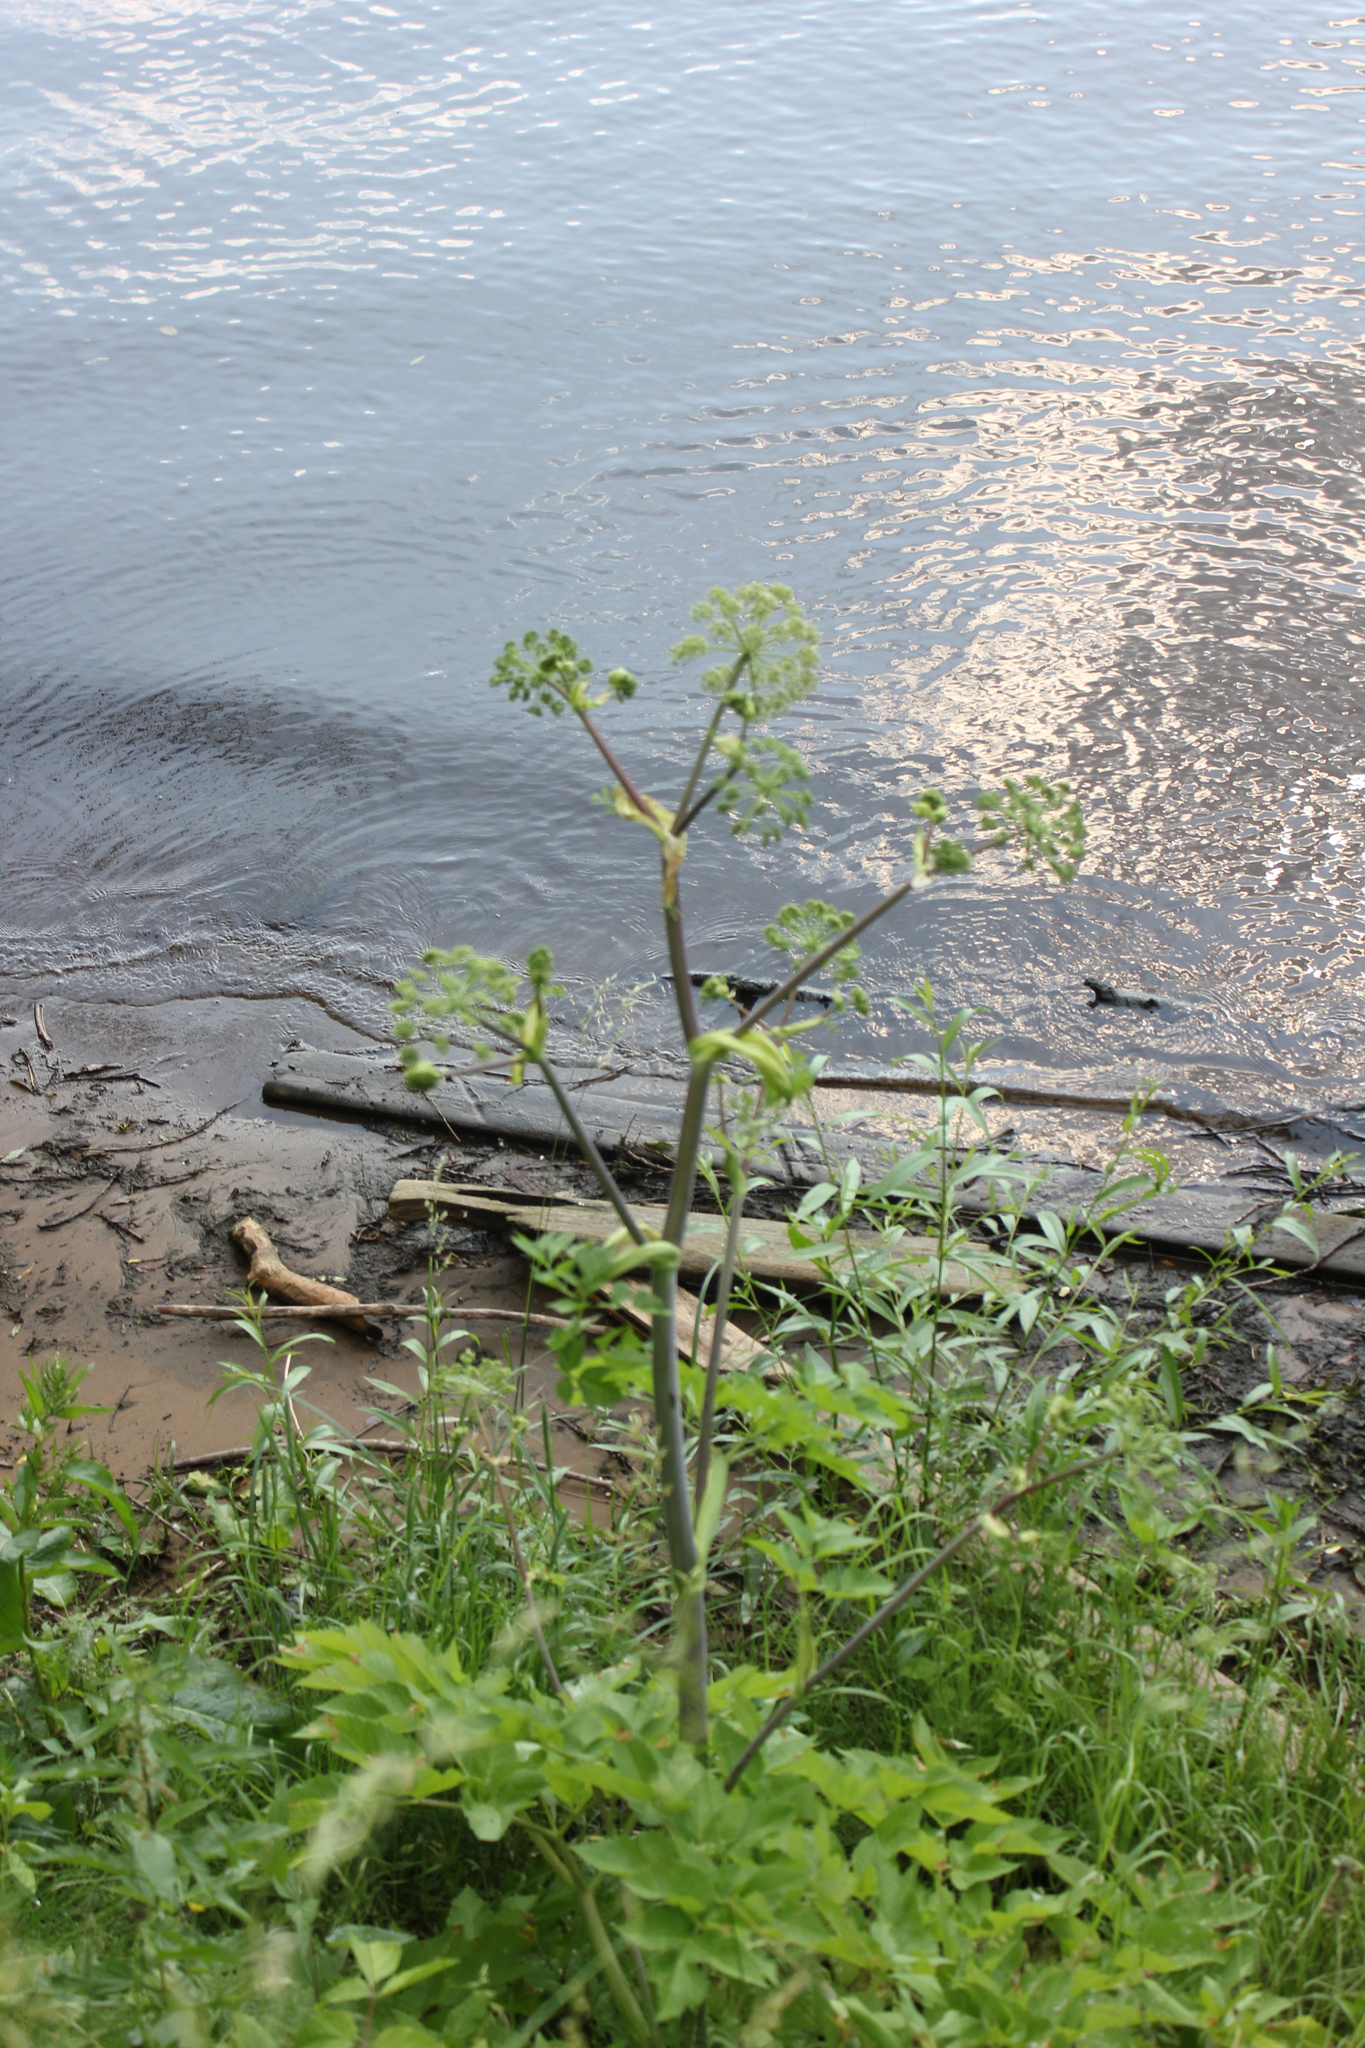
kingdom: Plantae
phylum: Tracheophyta
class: Magnoliopsida
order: Apiales
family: Apiaceae
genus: Angelica
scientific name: Angelica archangelica
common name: Garden angelica
